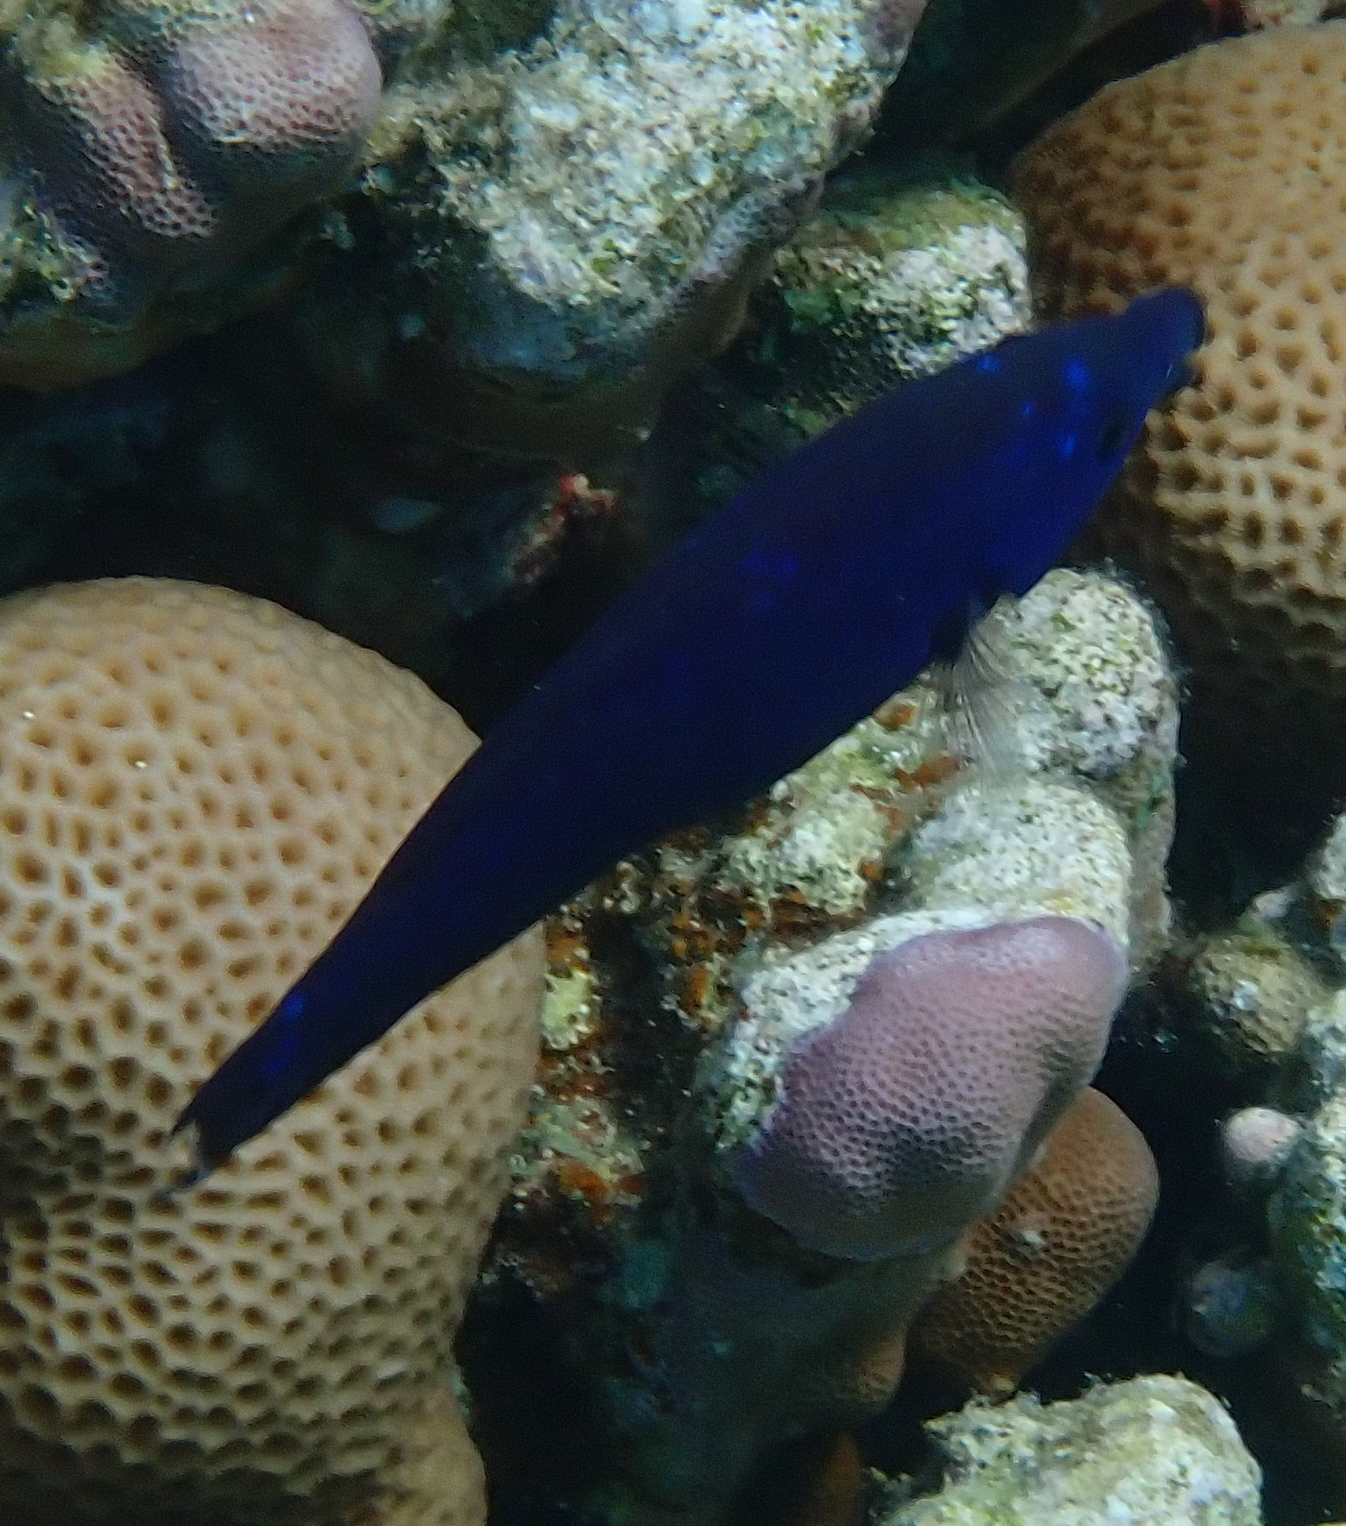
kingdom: Animalia
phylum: Chordata
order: Perciformes
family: Labridae
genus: Larabicus
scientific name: Larabicus quadrilineatus
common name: Fourline wrasse
